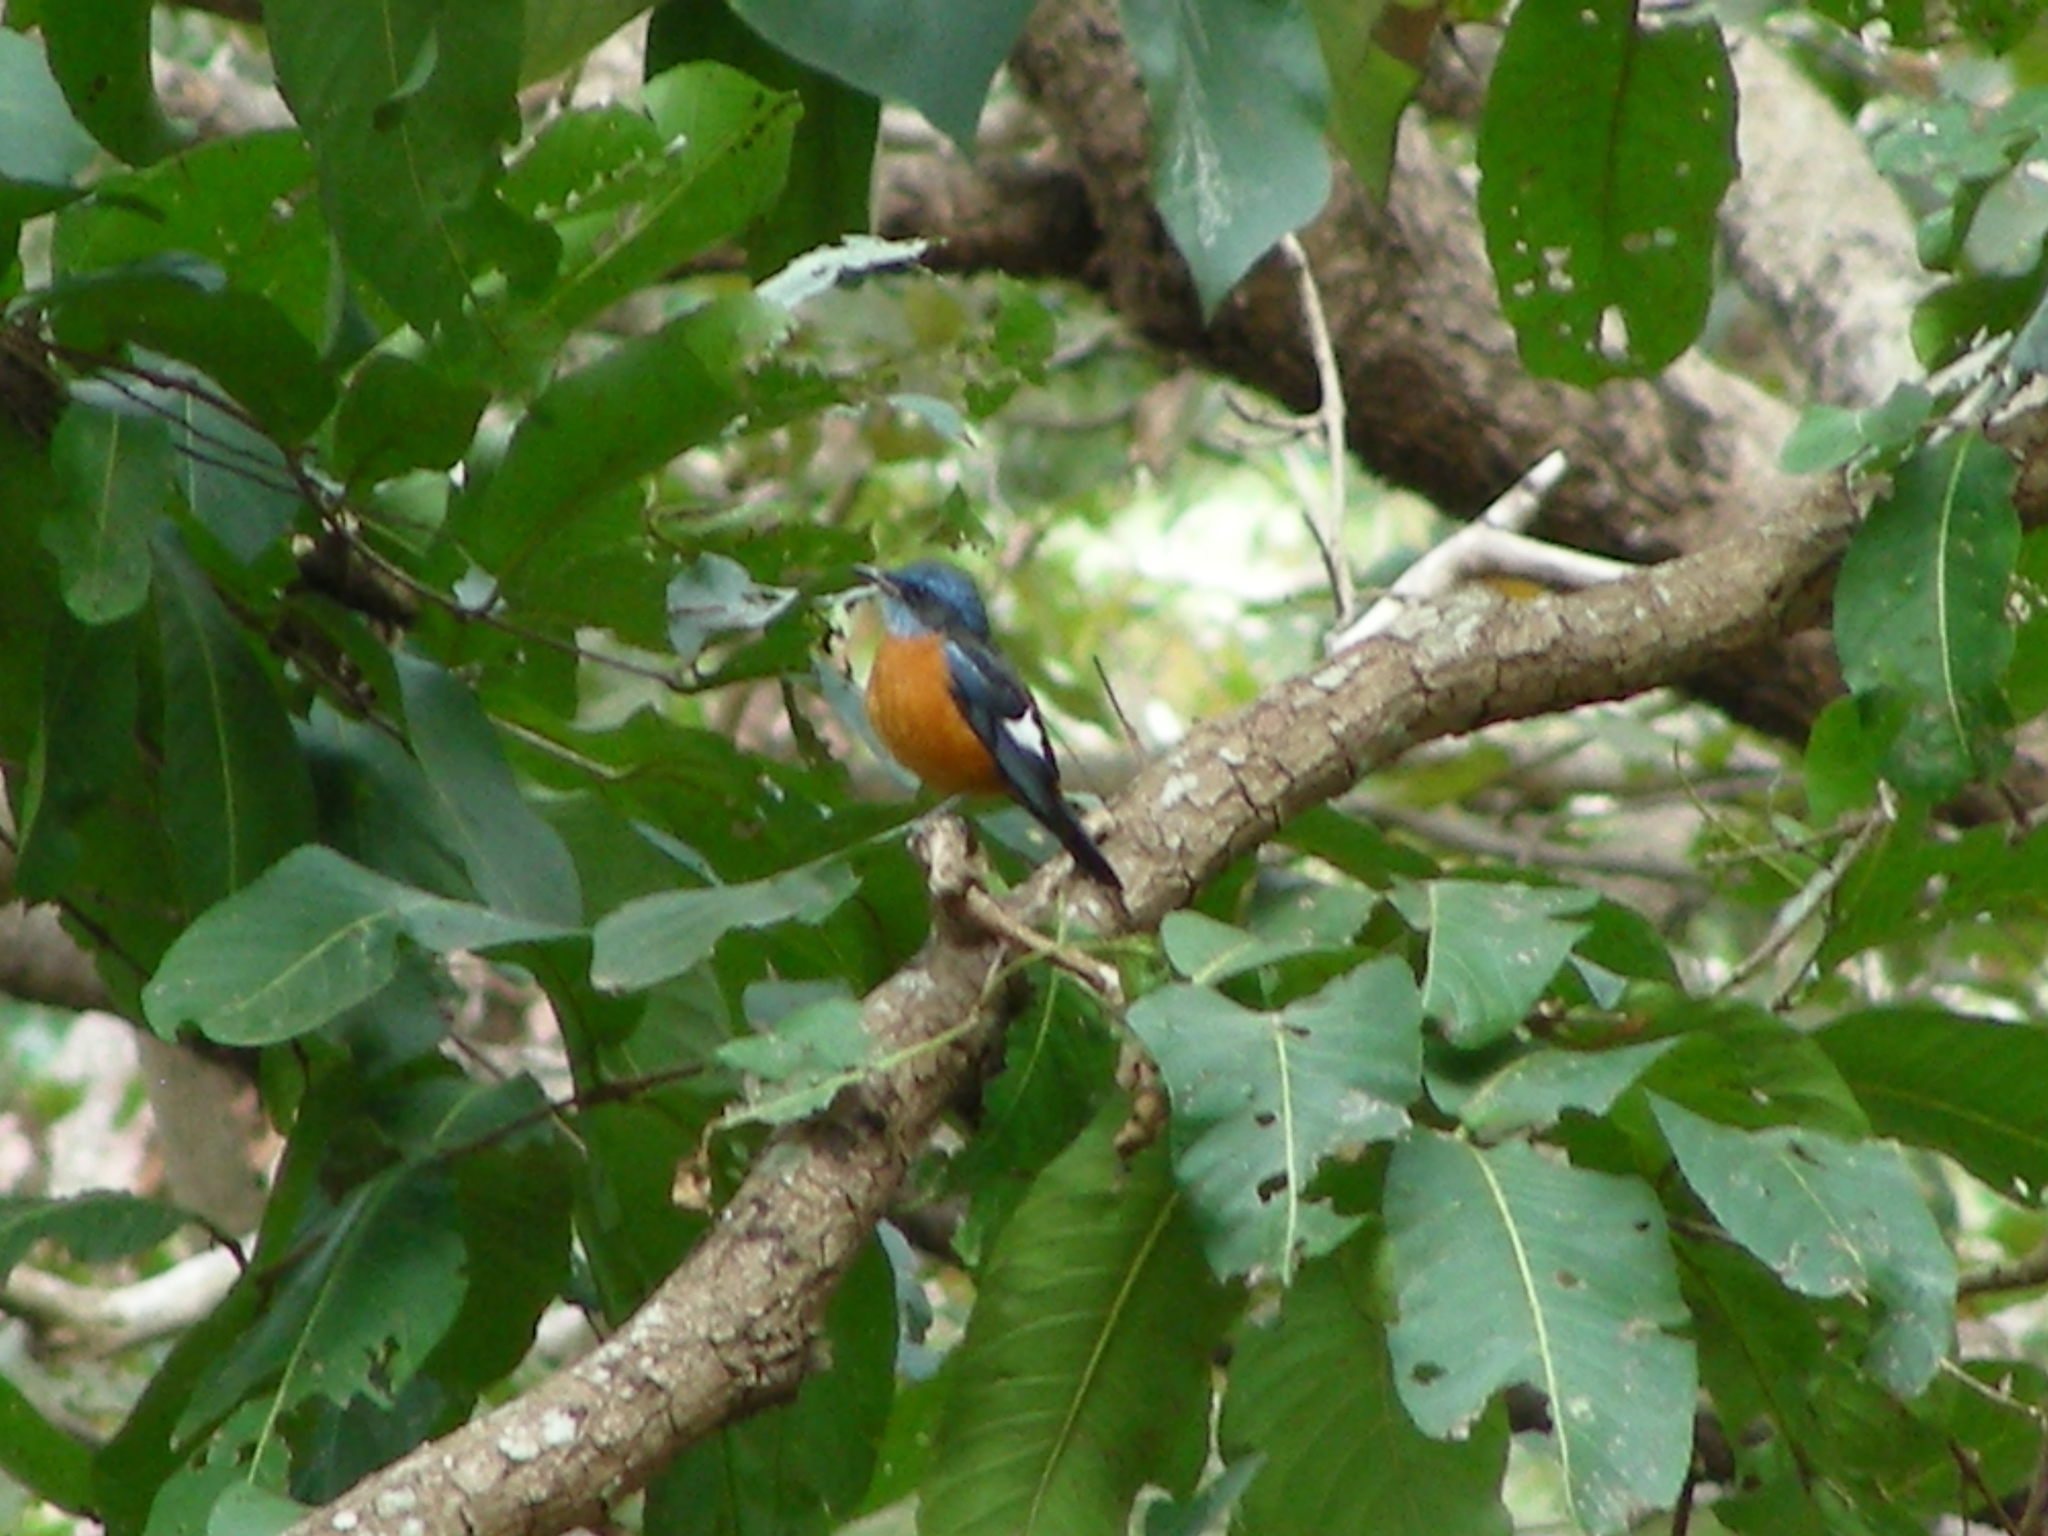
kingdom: Animalia
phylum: Chordata
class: Aves
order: Passeriformes
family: Muscicapidae
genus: Monticola
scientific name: Monticola cinclorhynchus
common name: Blue-capped rock thrush
